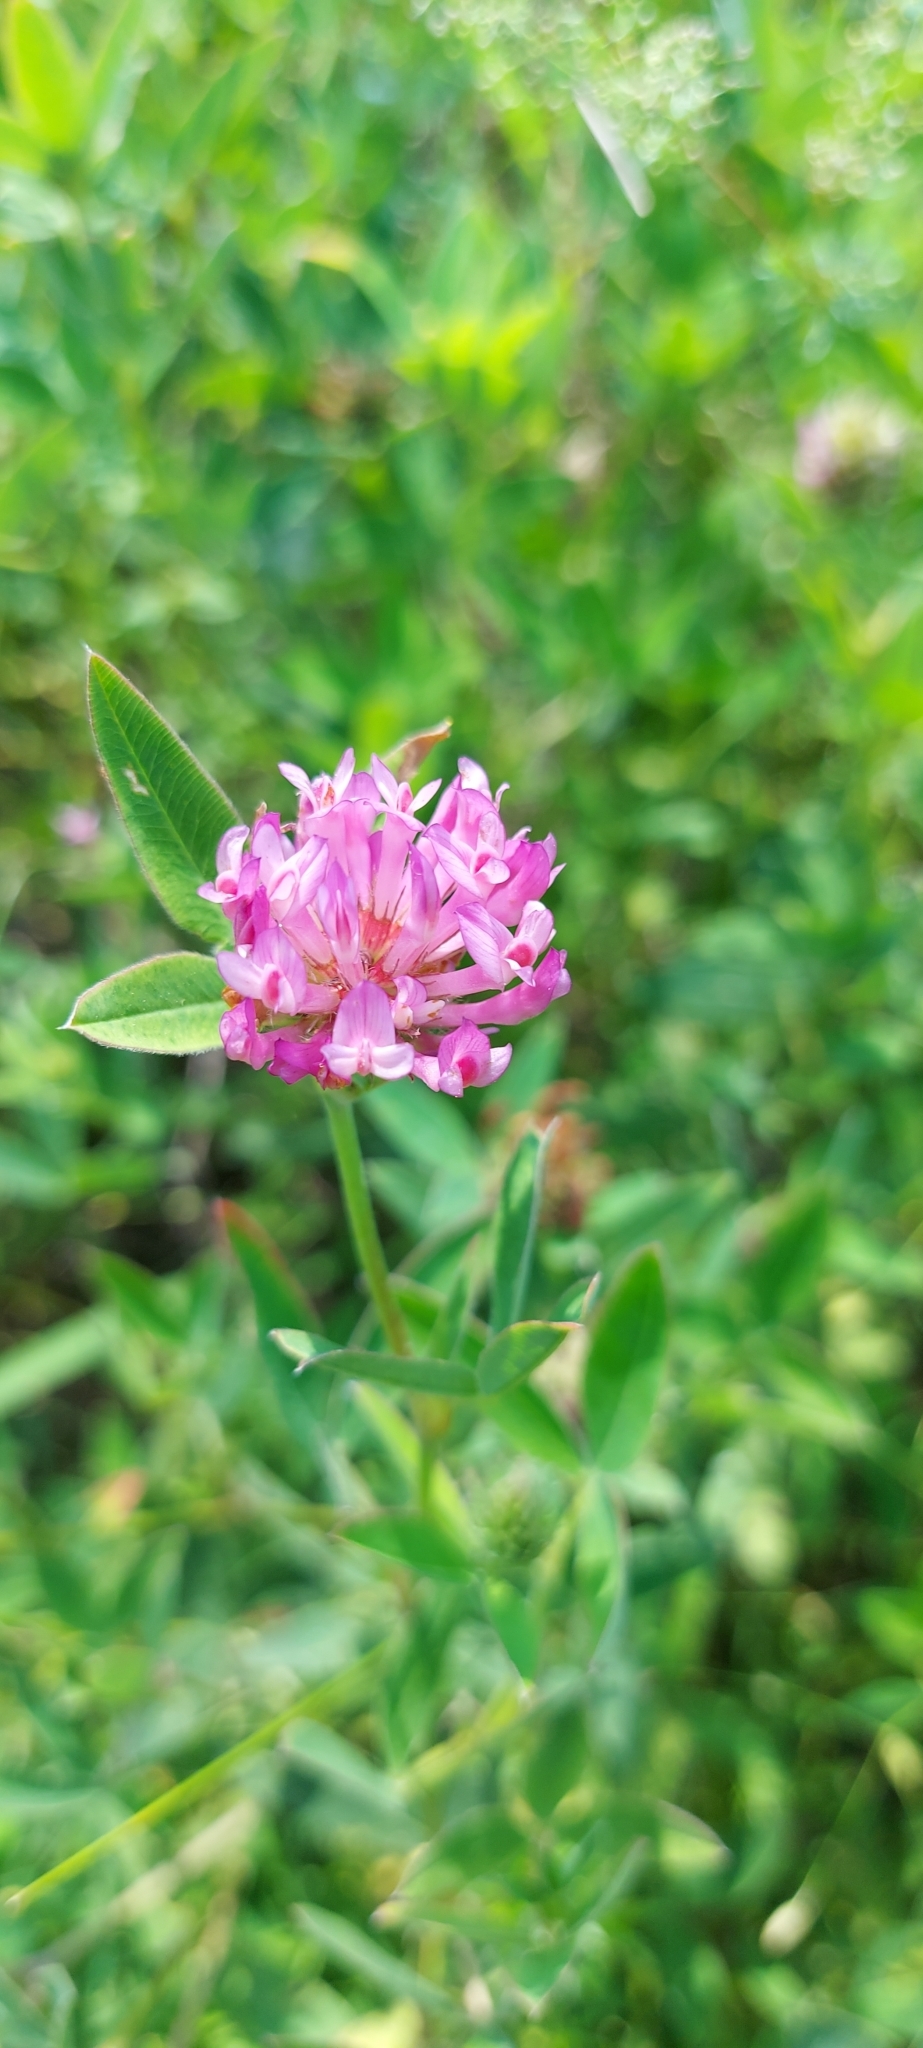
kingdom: Plantae
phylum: Tracheophyta
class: Magnoliopsida
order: Fabales
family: Fabaceae
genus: Trifolium
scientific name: Trifolium pratense
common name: Red clover
